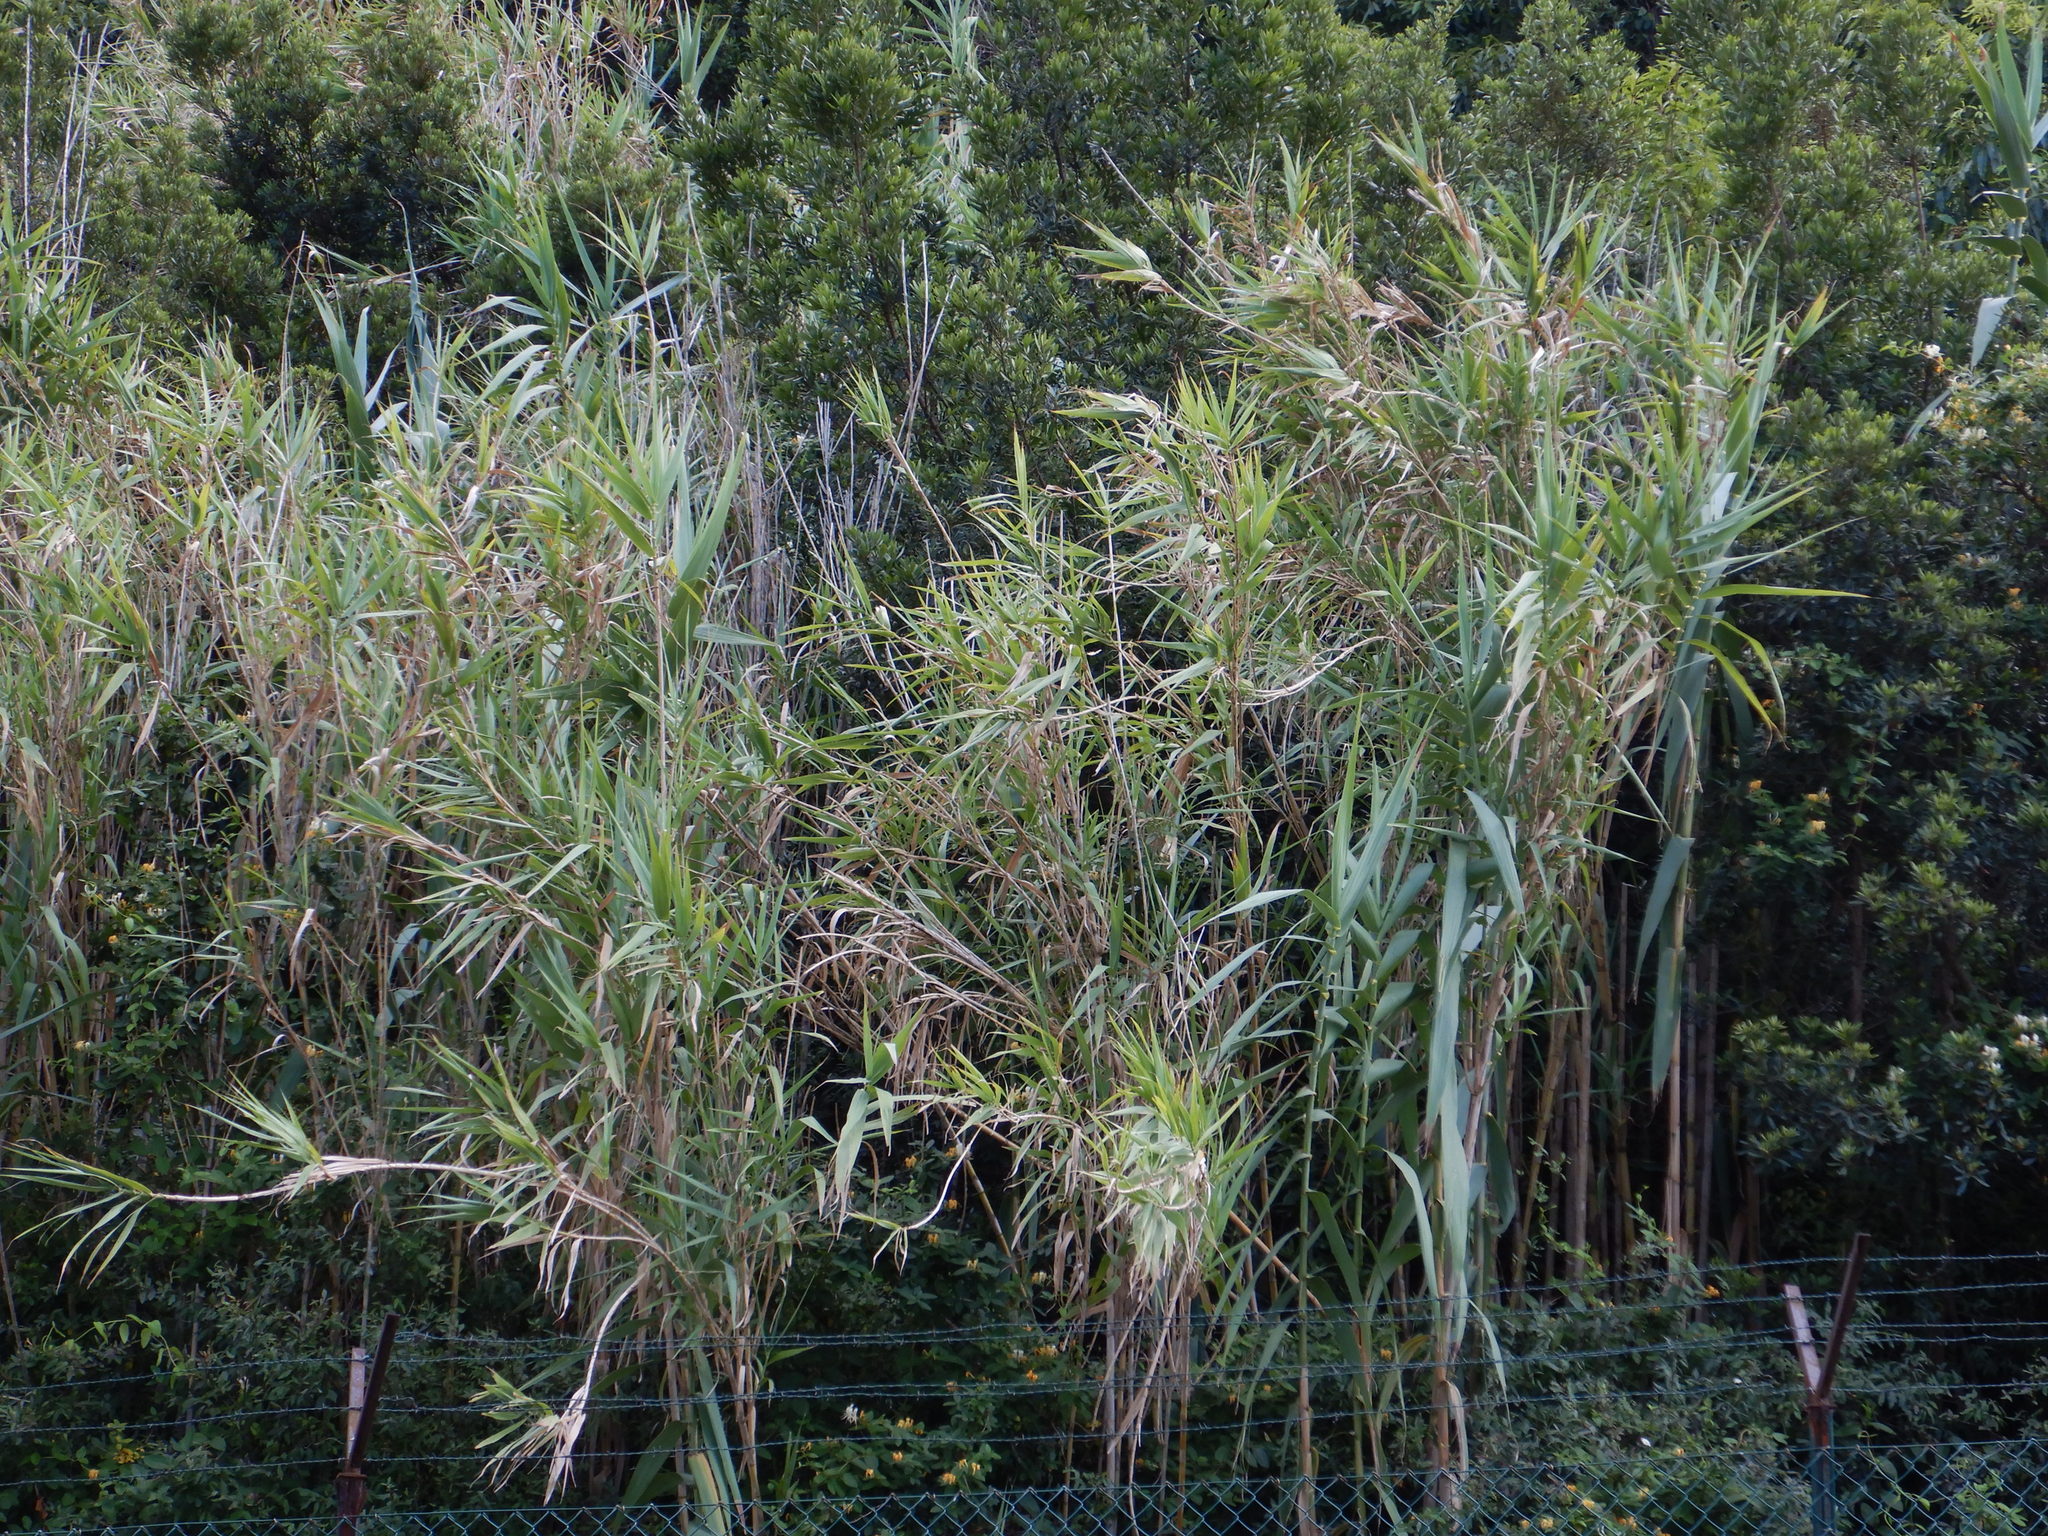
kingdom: Plantae
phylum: Tracheophyta
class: Liliopsida
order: Poales
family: Poaceae
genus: Arundo
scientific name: Arundo donax
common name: Giant reed
